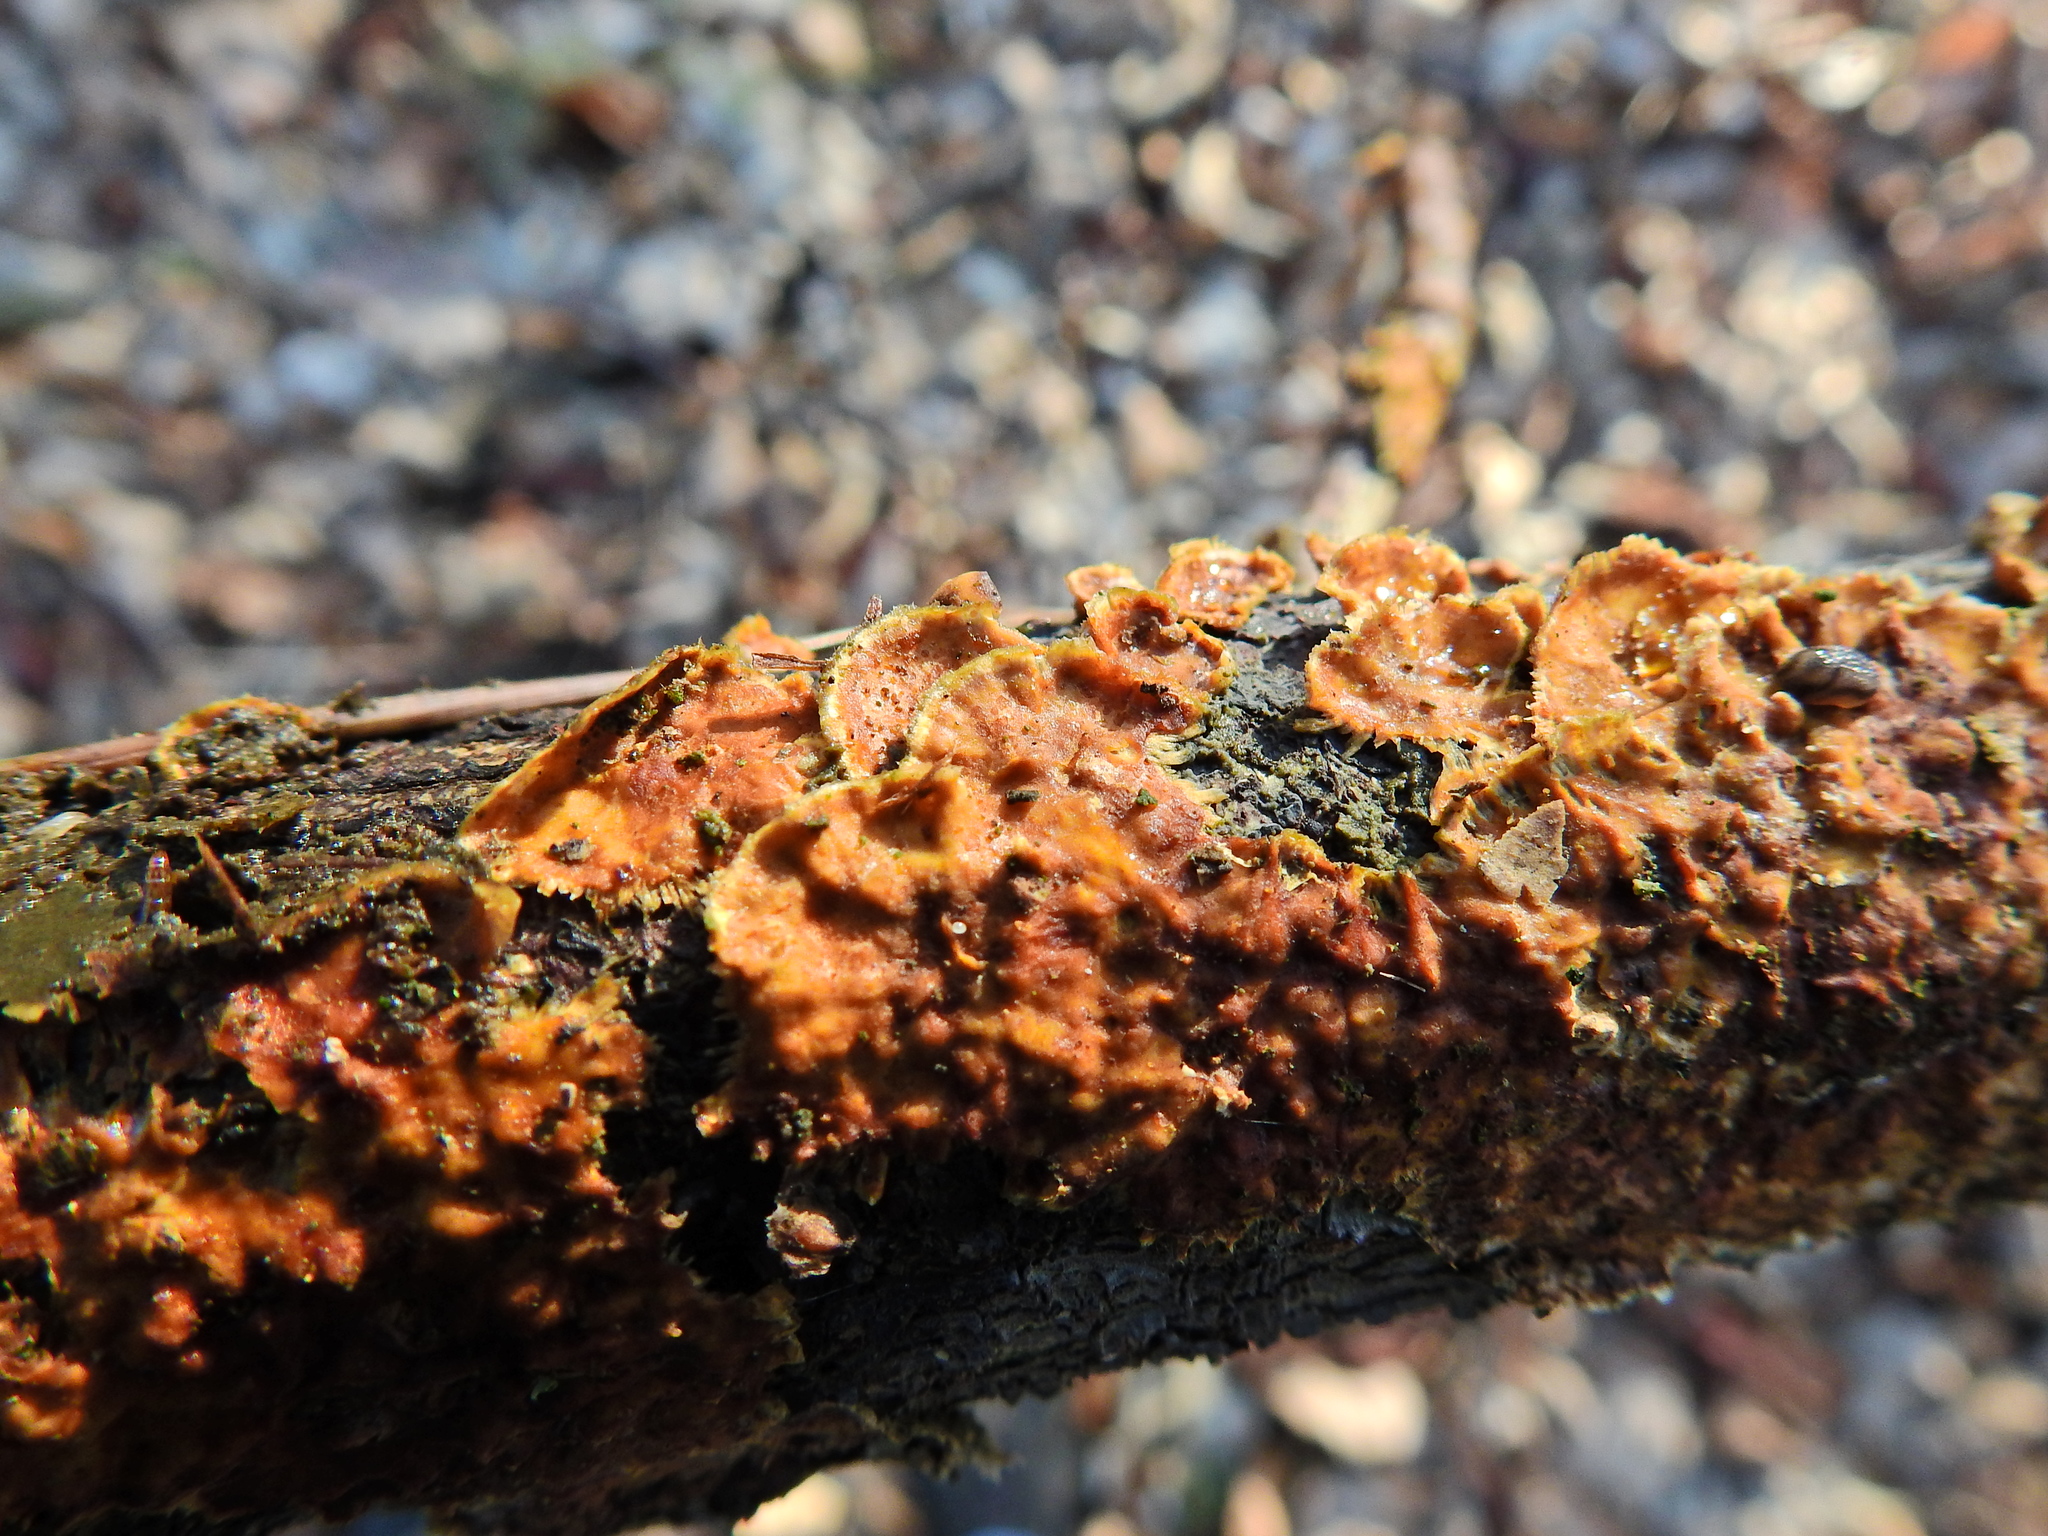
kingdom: Fungi
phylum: Basidiomycota
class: Agaricomycetes
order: Russulales
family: Stereaceae
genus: Stereum
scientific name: Stereum hirsutum
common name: Hairy curtain crust
